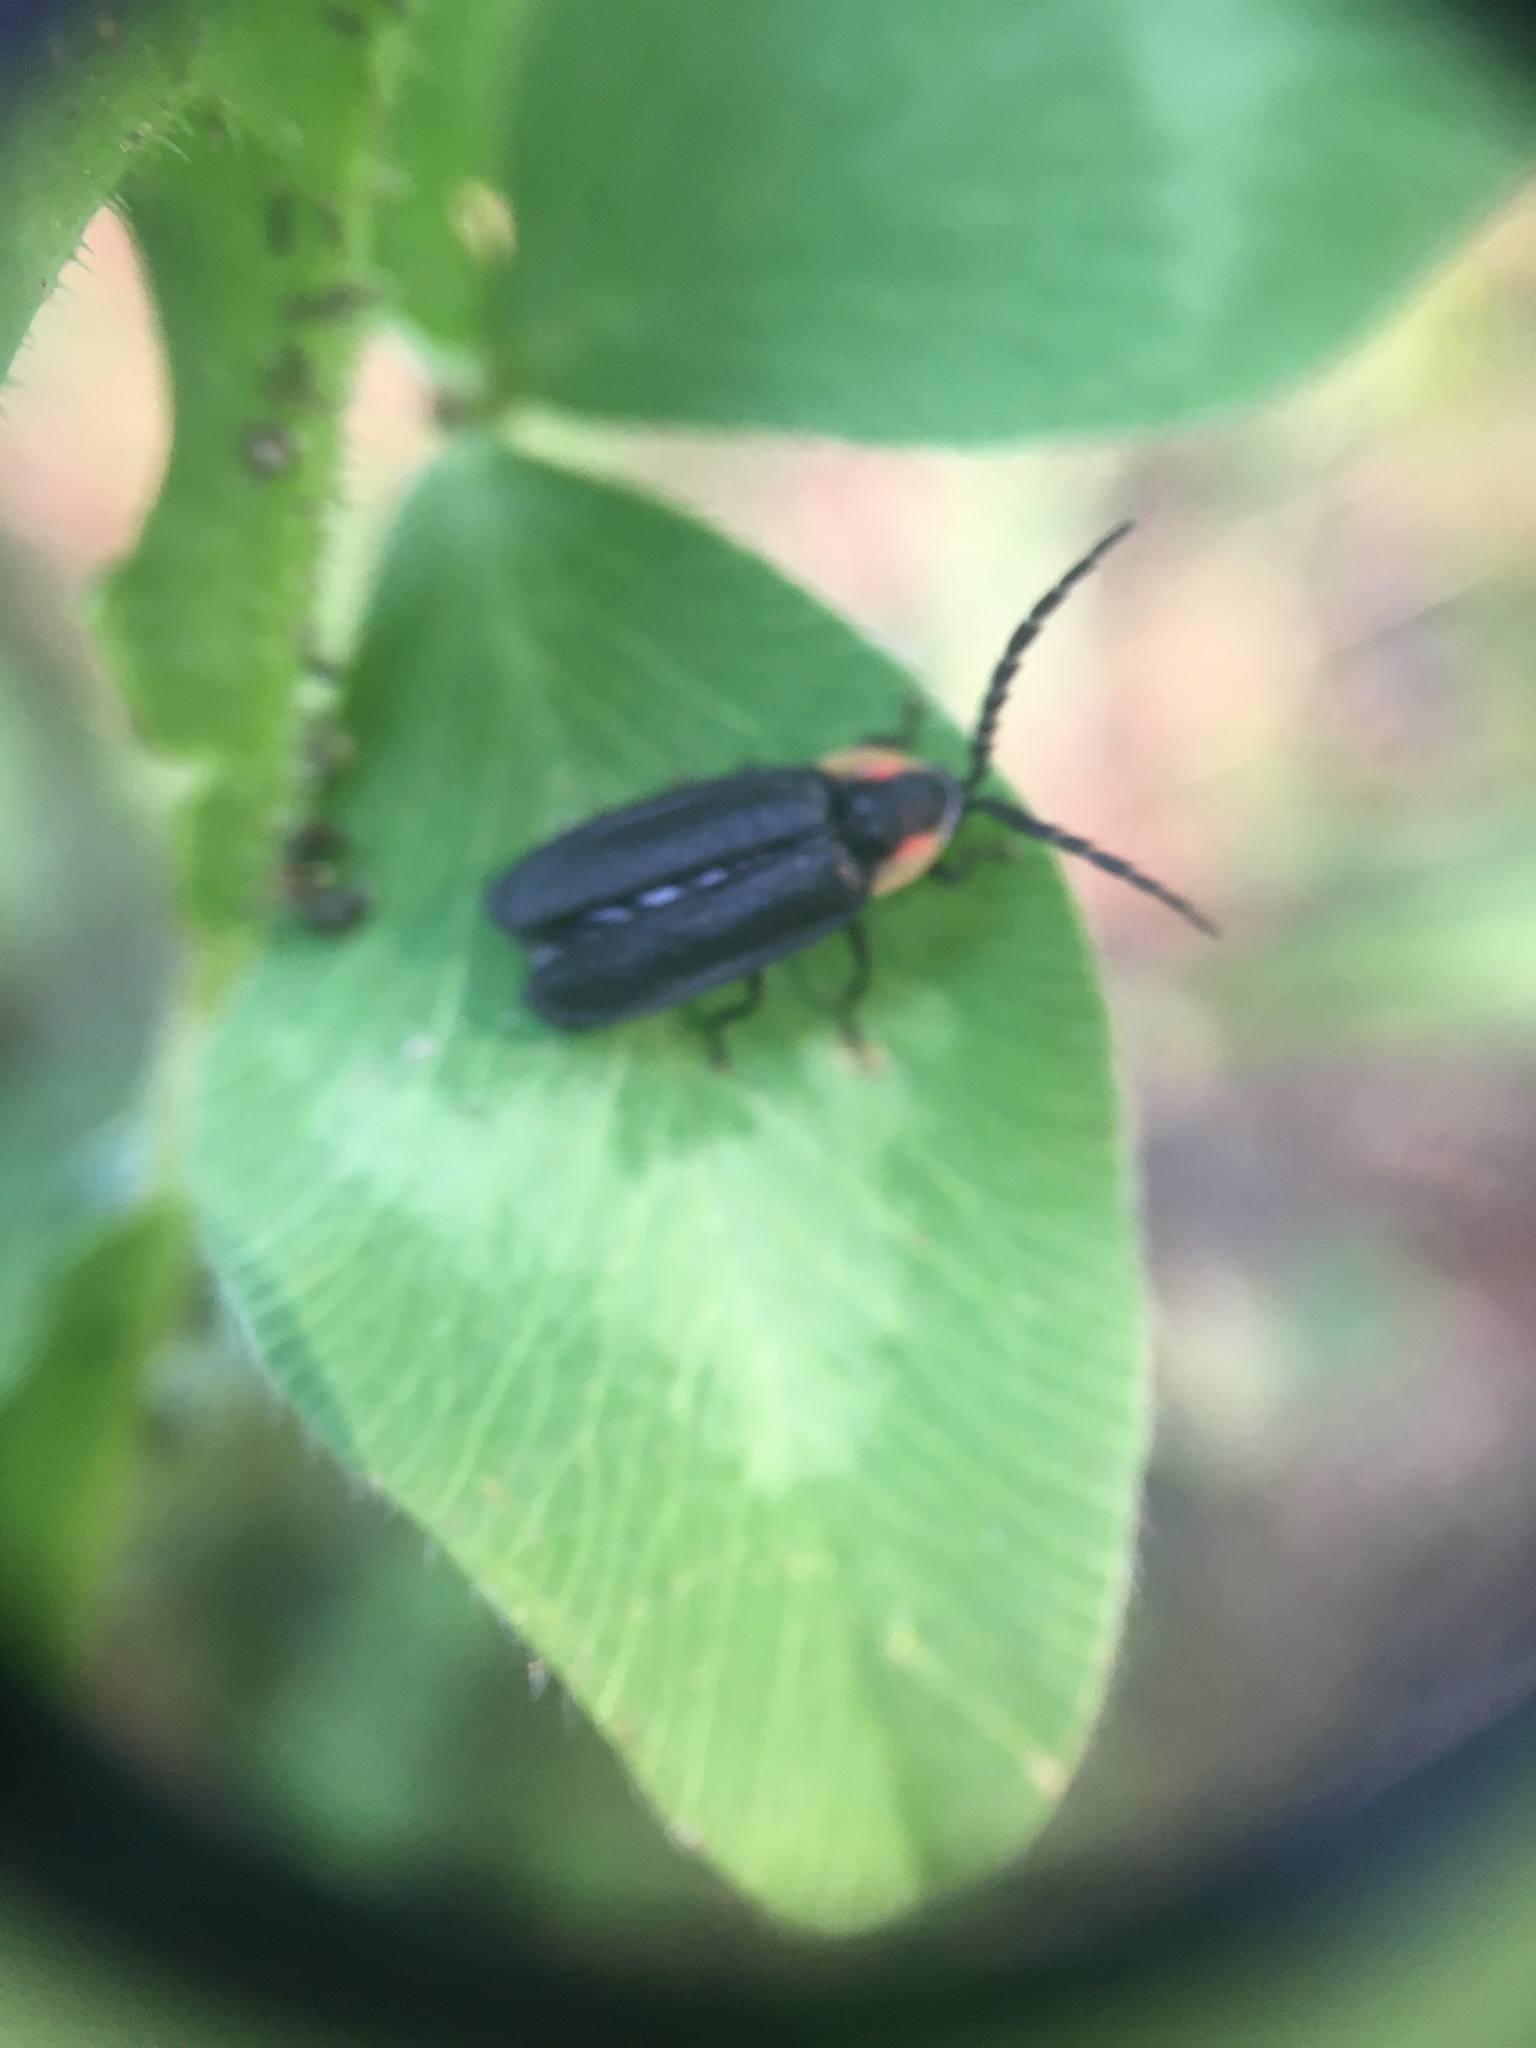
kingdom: Animalia
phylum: Arthropoda
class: Insecta
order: Coleoptera
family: Lampyridae
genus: Lucidota
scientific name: Lucidota atra
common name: Black firefly
